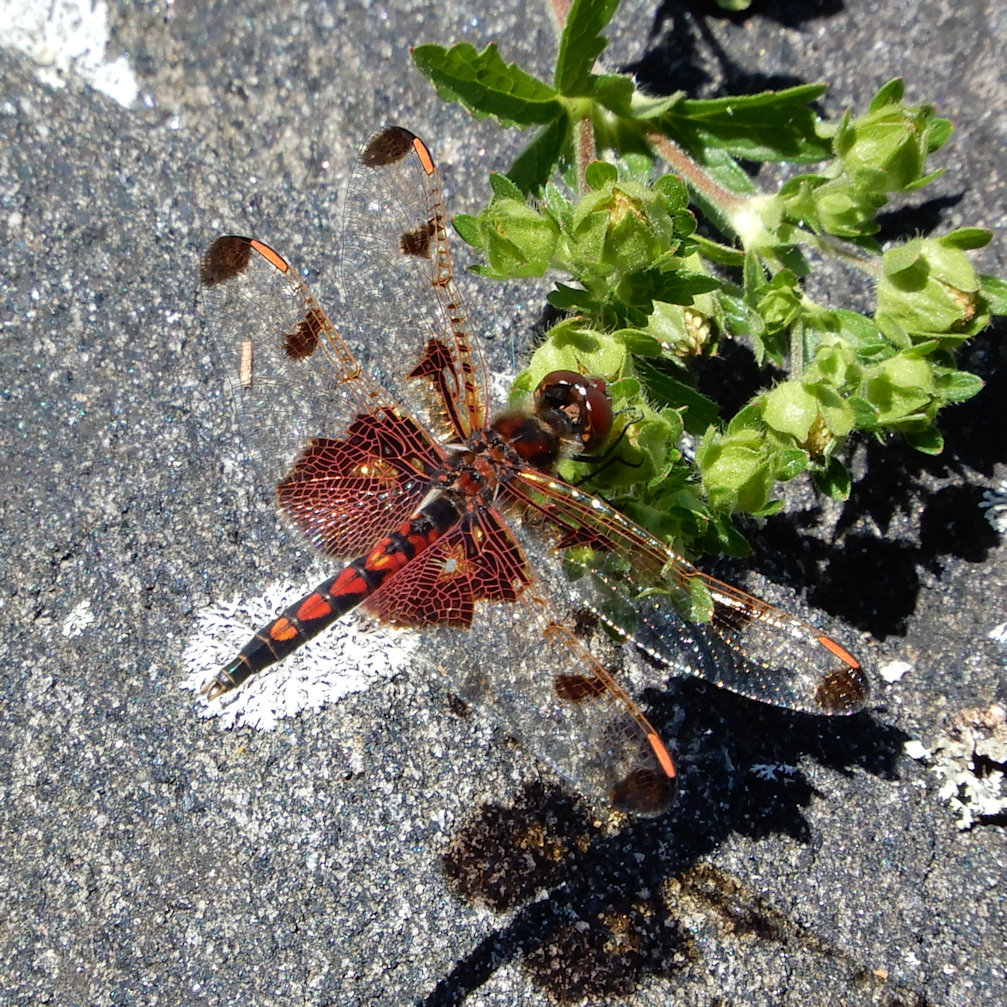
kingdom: Animalia
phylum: Arthropoda
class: Insecta
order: Odonata
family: Libellulidae
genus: Celithemis
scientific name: Celithemis elisa
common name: Calico pennant
